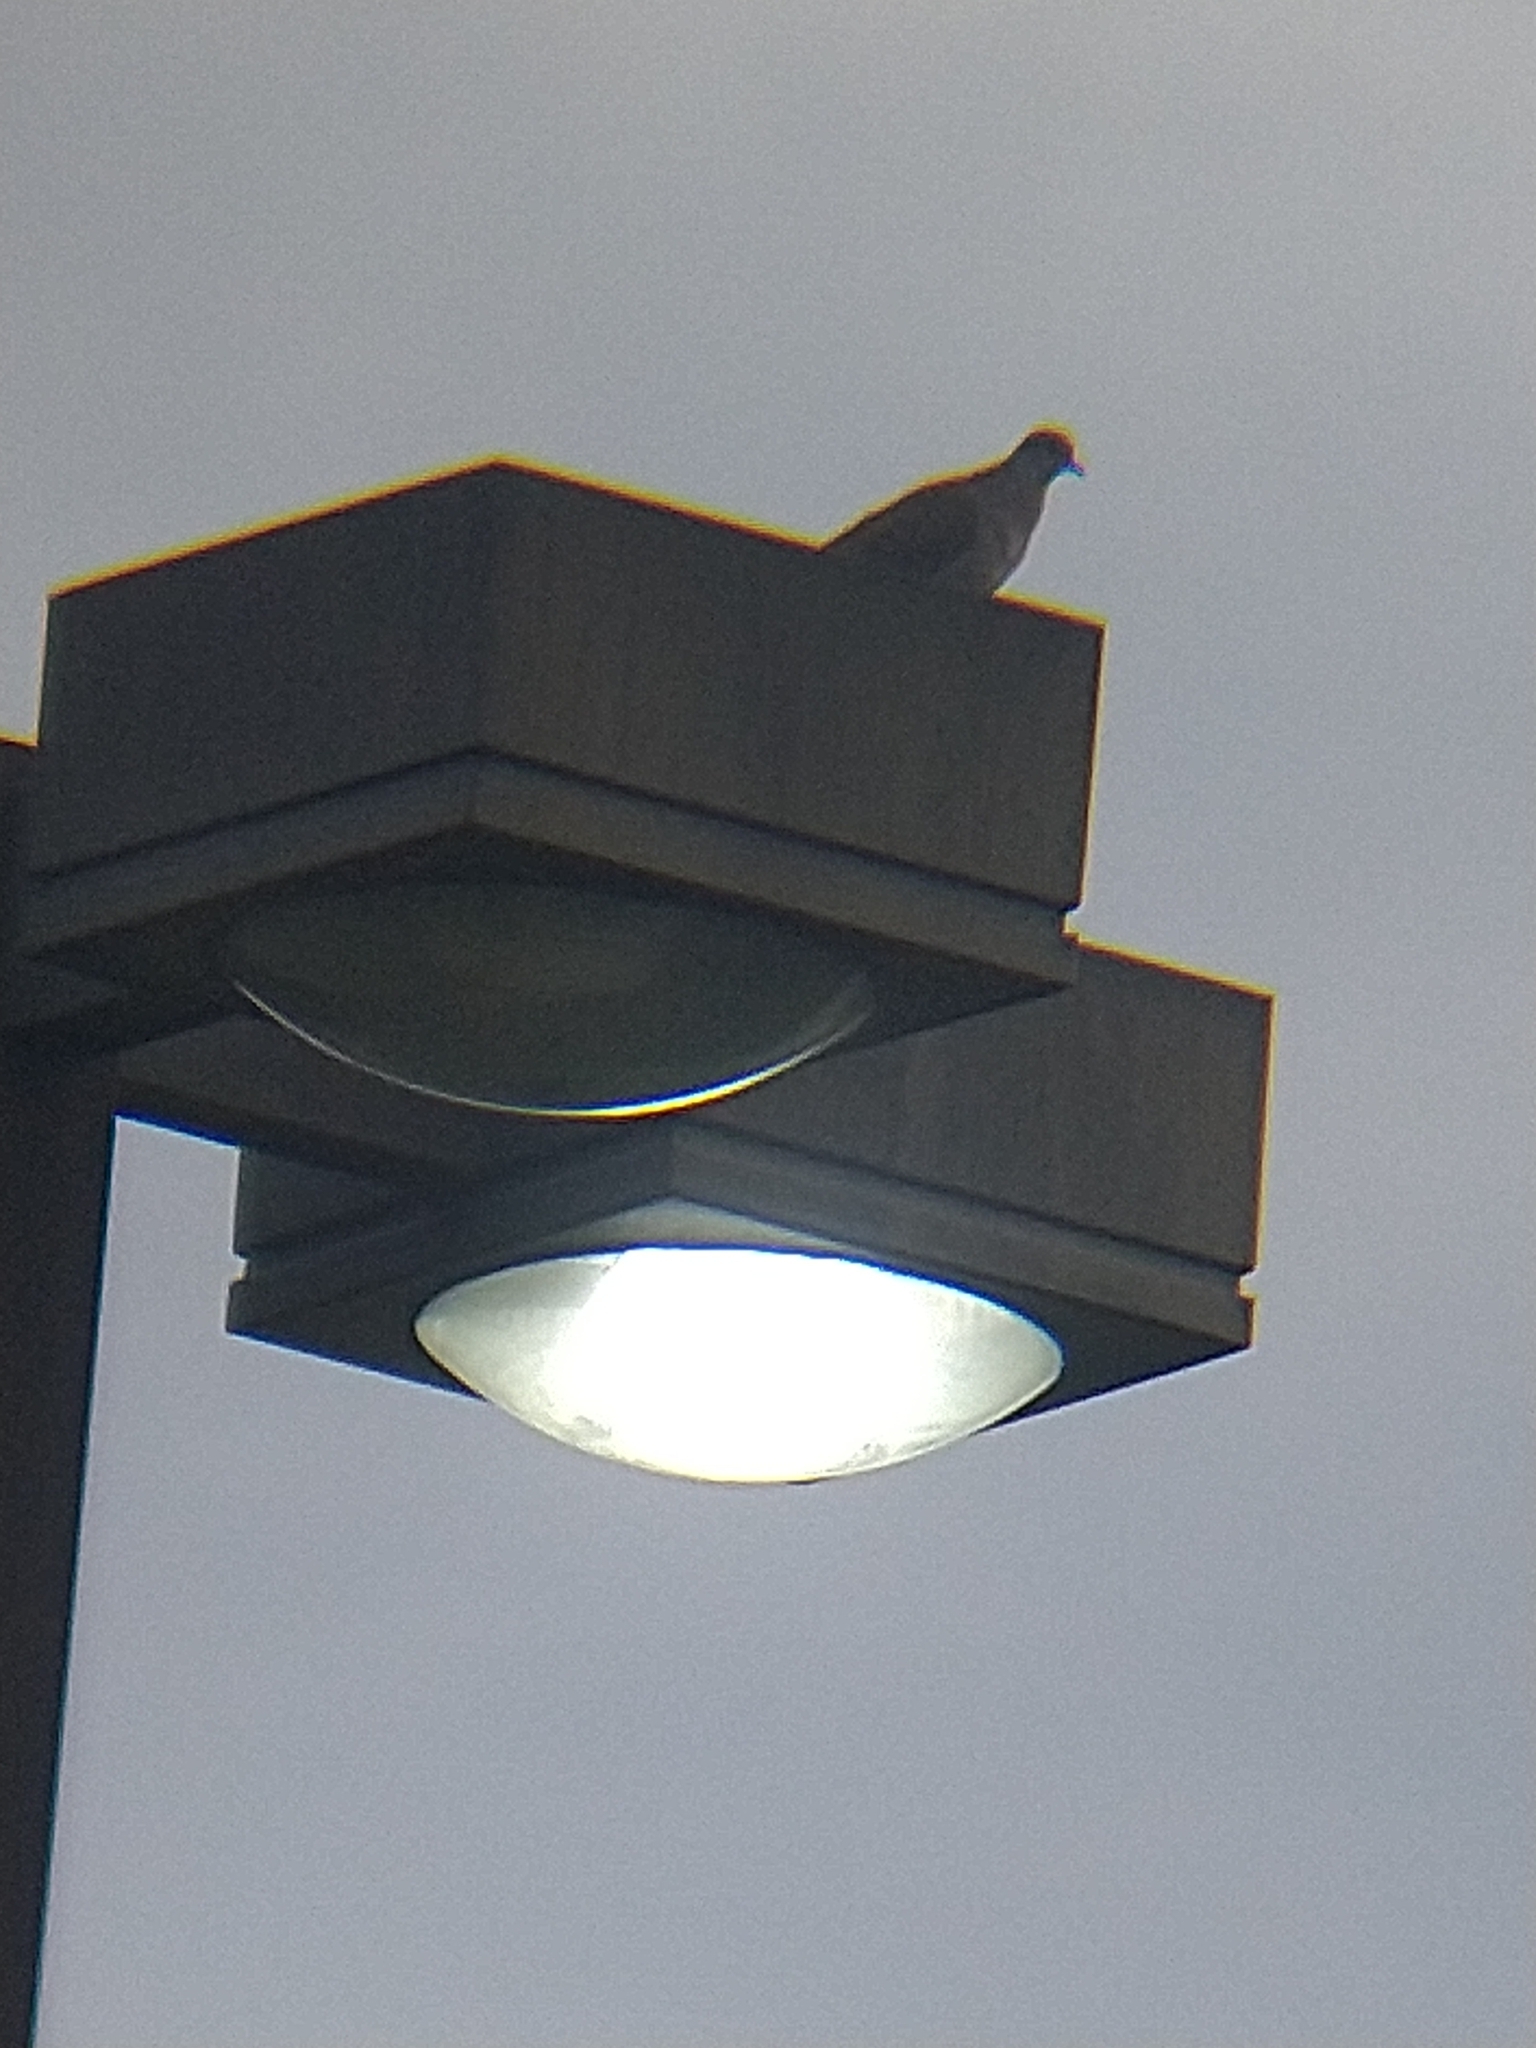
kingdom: Animalia
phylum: Chordata
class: Aves
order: Columbiformes
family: Columbidae
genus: Zenaida
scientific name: Zenaida macroura
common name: Mourning dove
